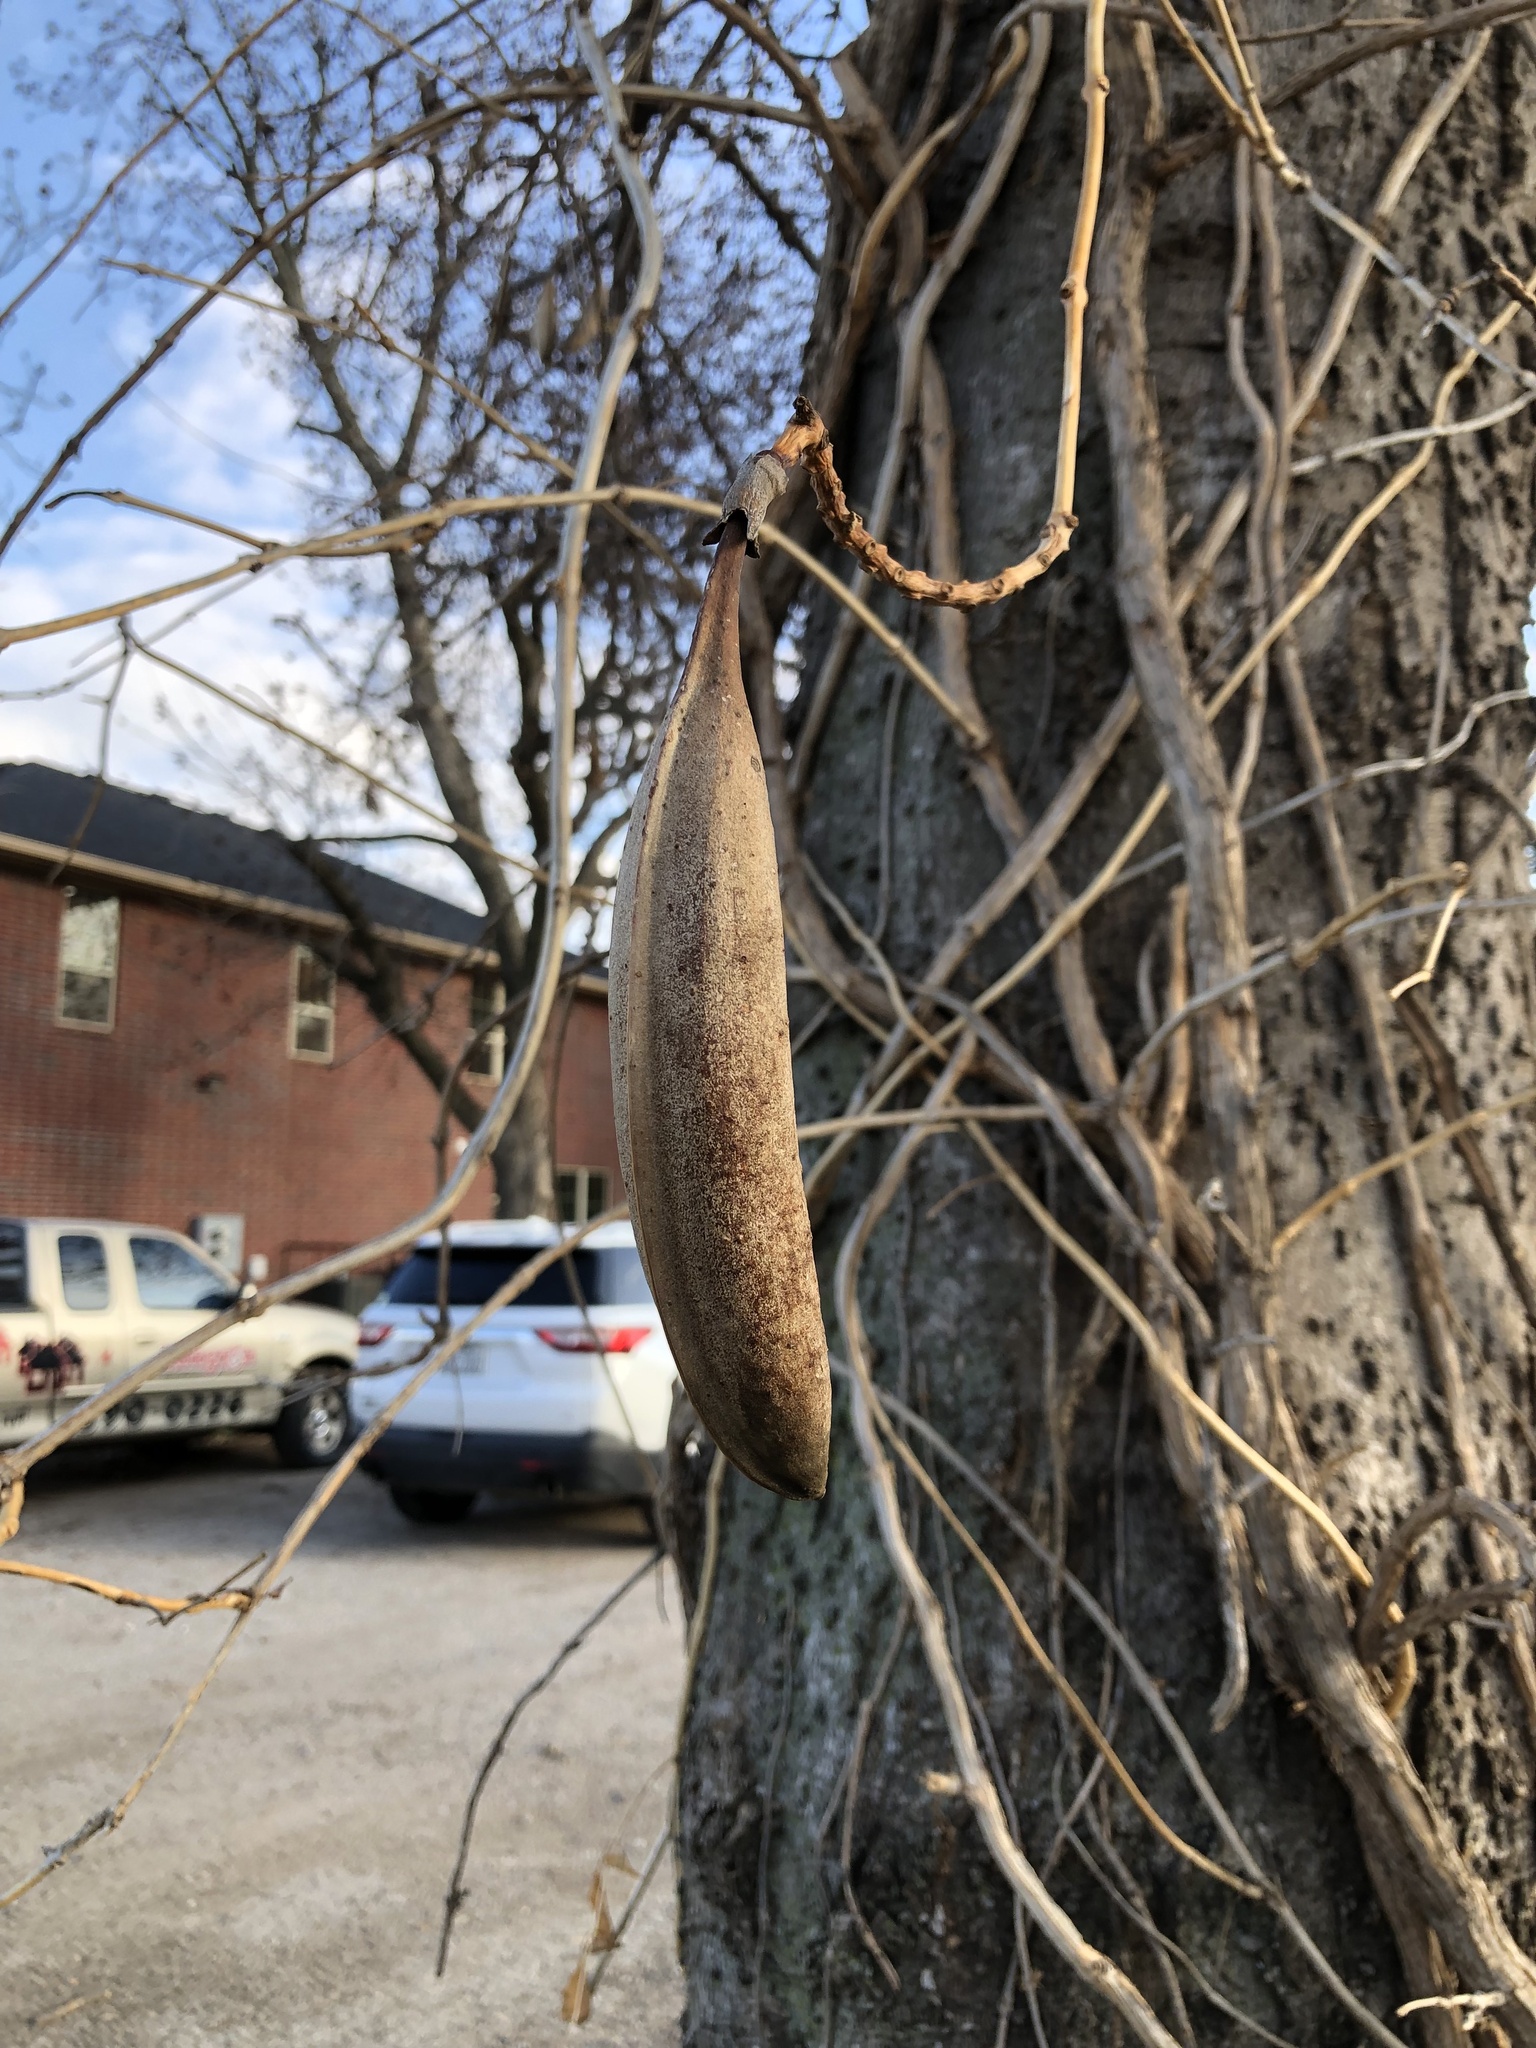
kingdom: Plantae
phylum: Tracheophyta
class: Magnoliopsida
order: Lamiales
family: Bignoniaceae
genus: Campsis
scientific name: Campsis radicans
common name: Trumpet-creeper
